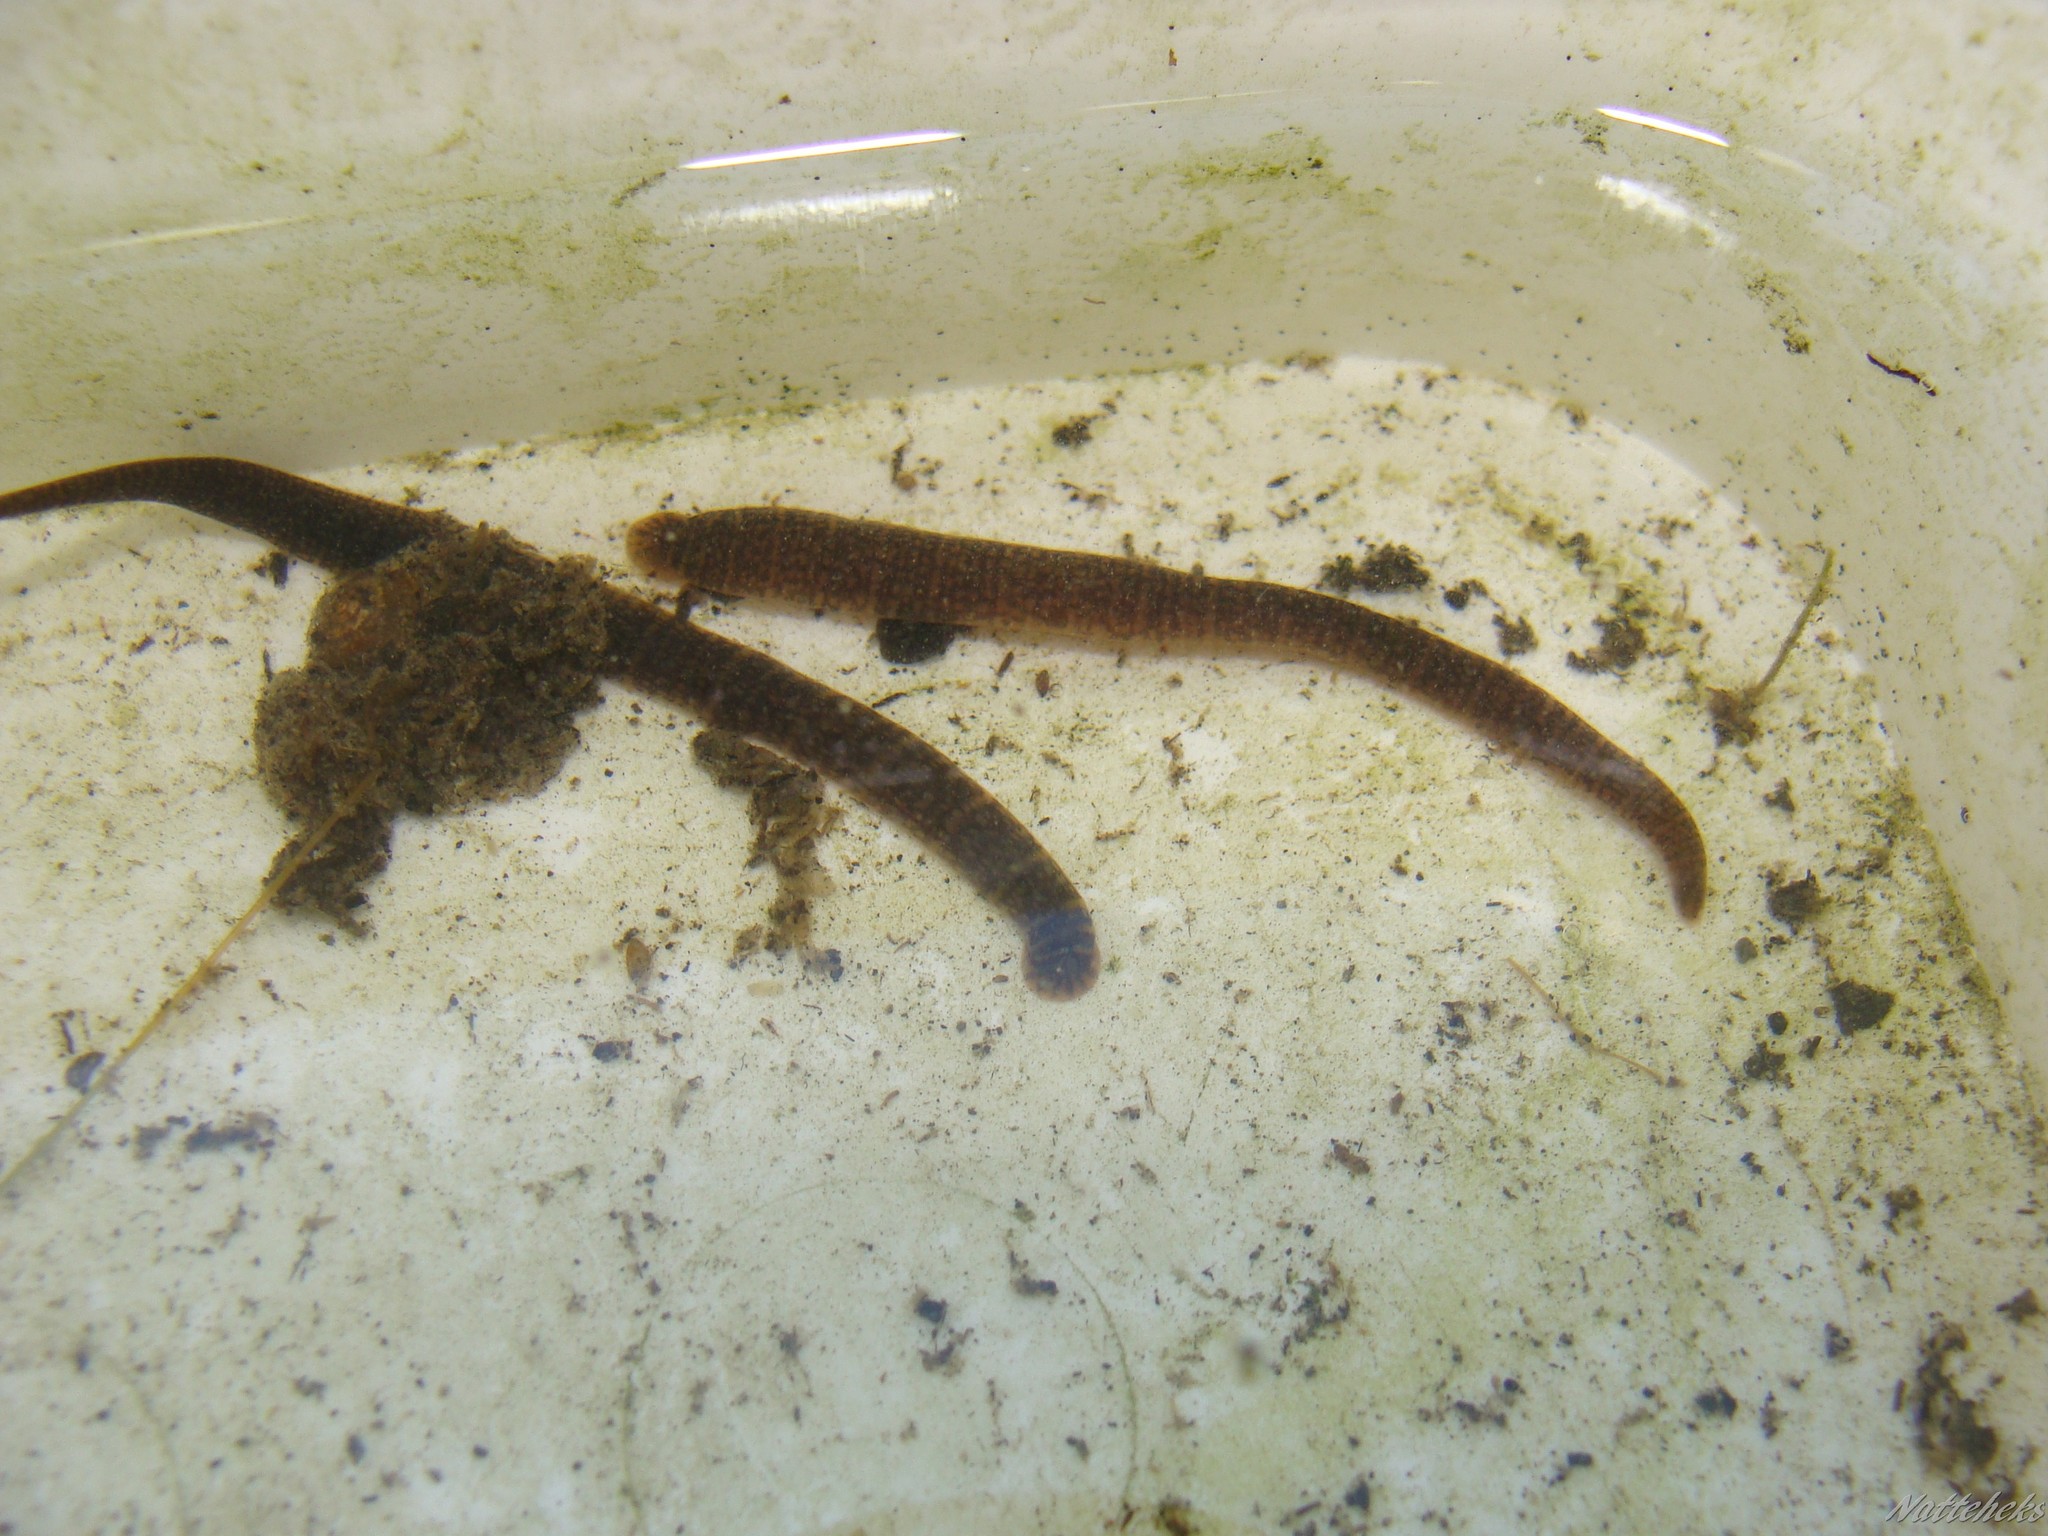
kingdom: Animalia
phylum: Annelida
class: Clitellata
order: Arhynchobdellida
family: Erpobdellidae
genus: Erpobdella
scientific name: Erpobdella octoculata
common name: Leeches
